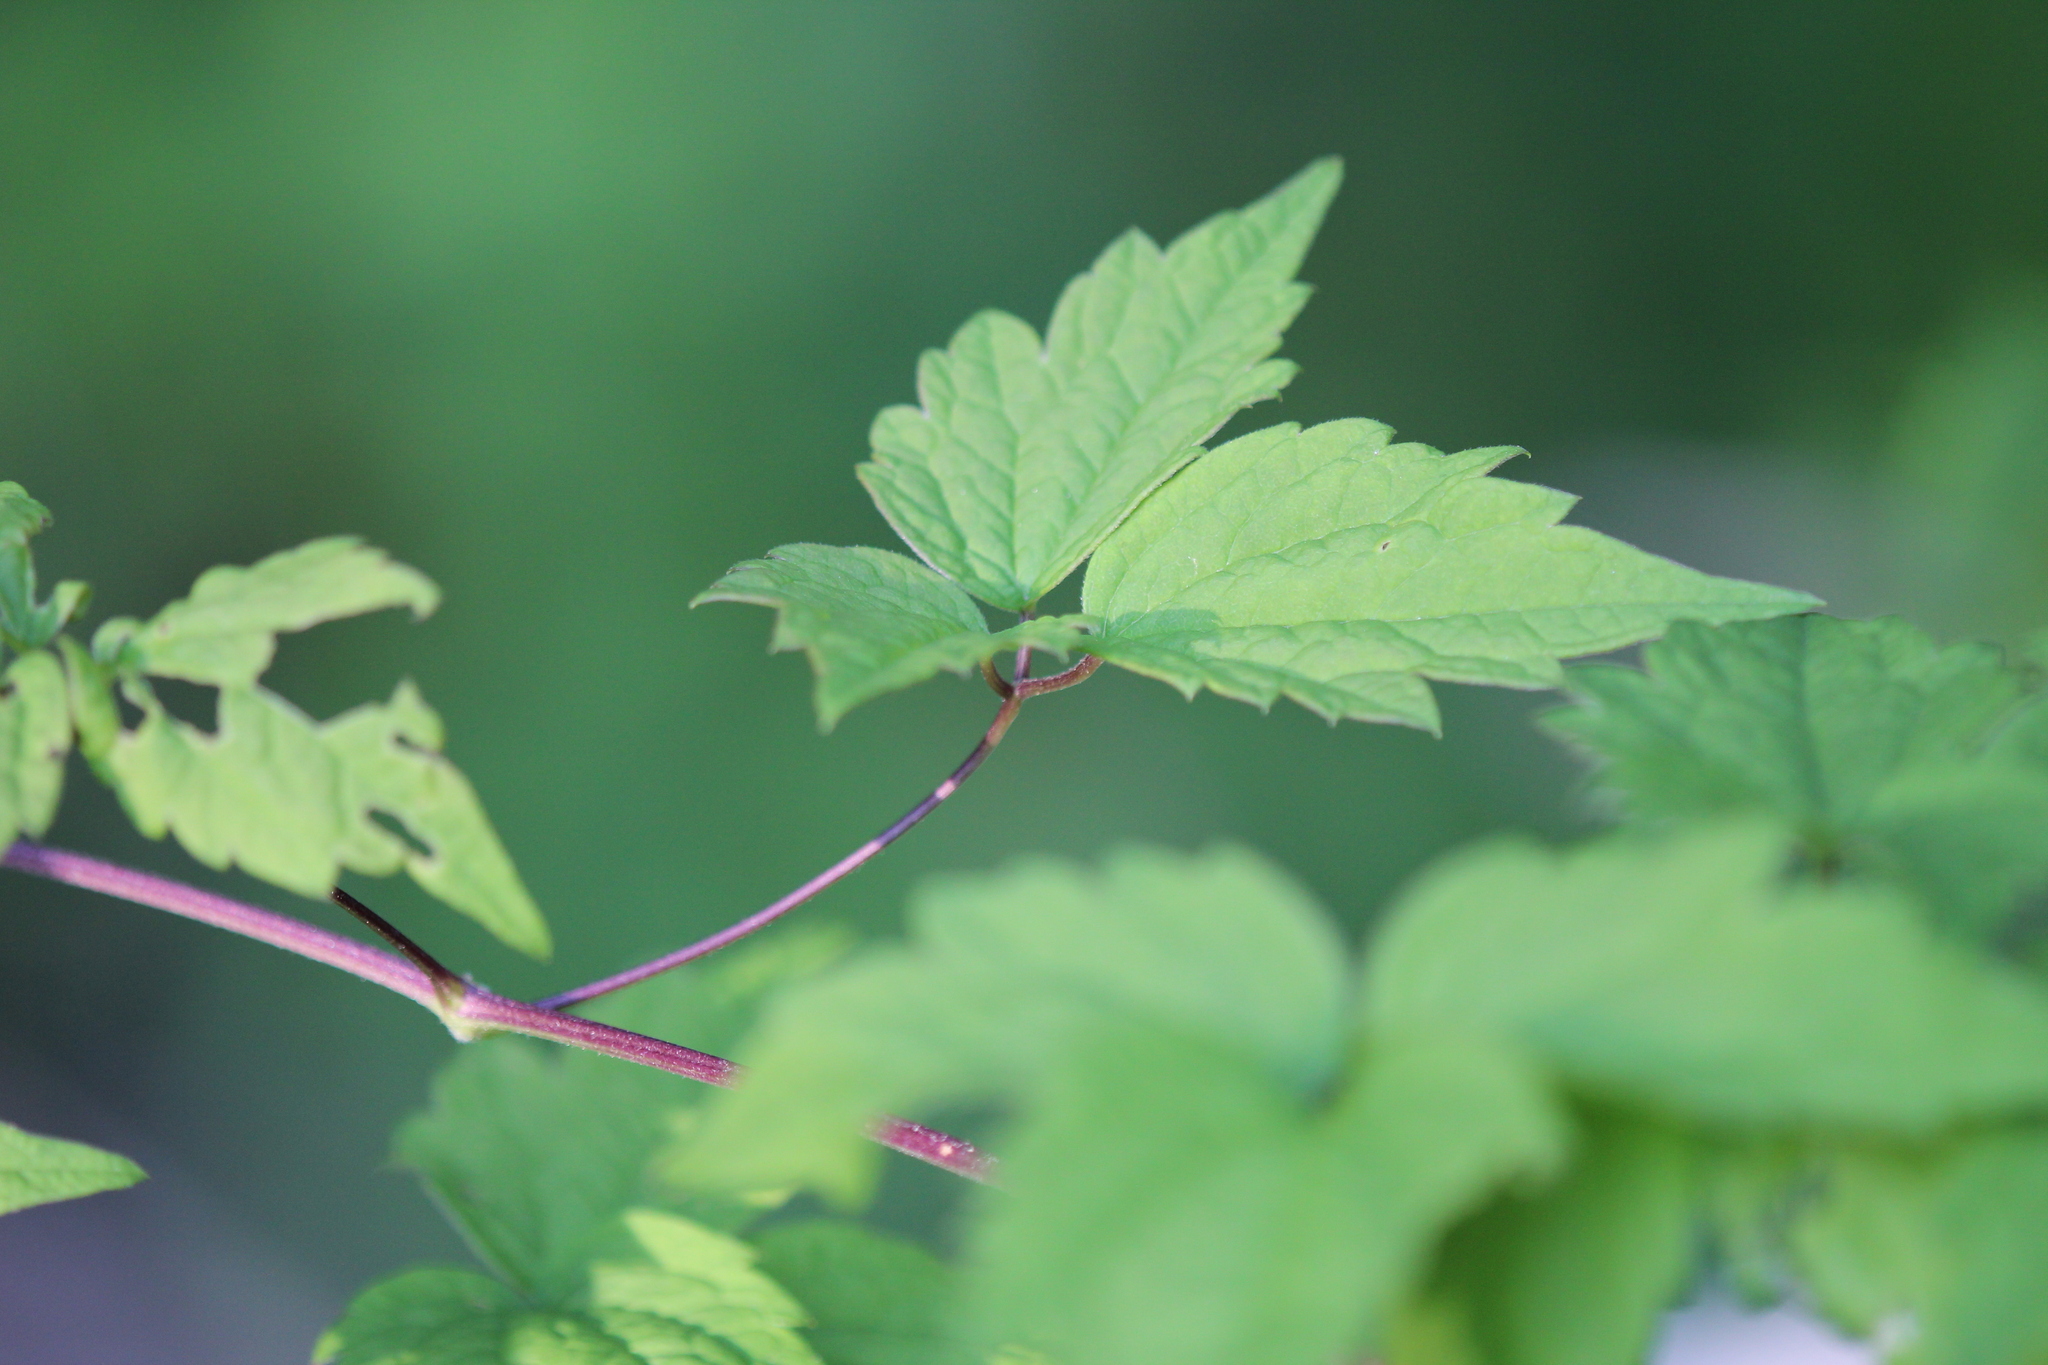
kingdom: Plantae
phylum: Tracheophyta
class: Magnoliopsida
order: Ranunculales
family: Ranunculaceae
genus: Clematis
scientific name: Clematis virginiana
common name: Virgin's-bower
